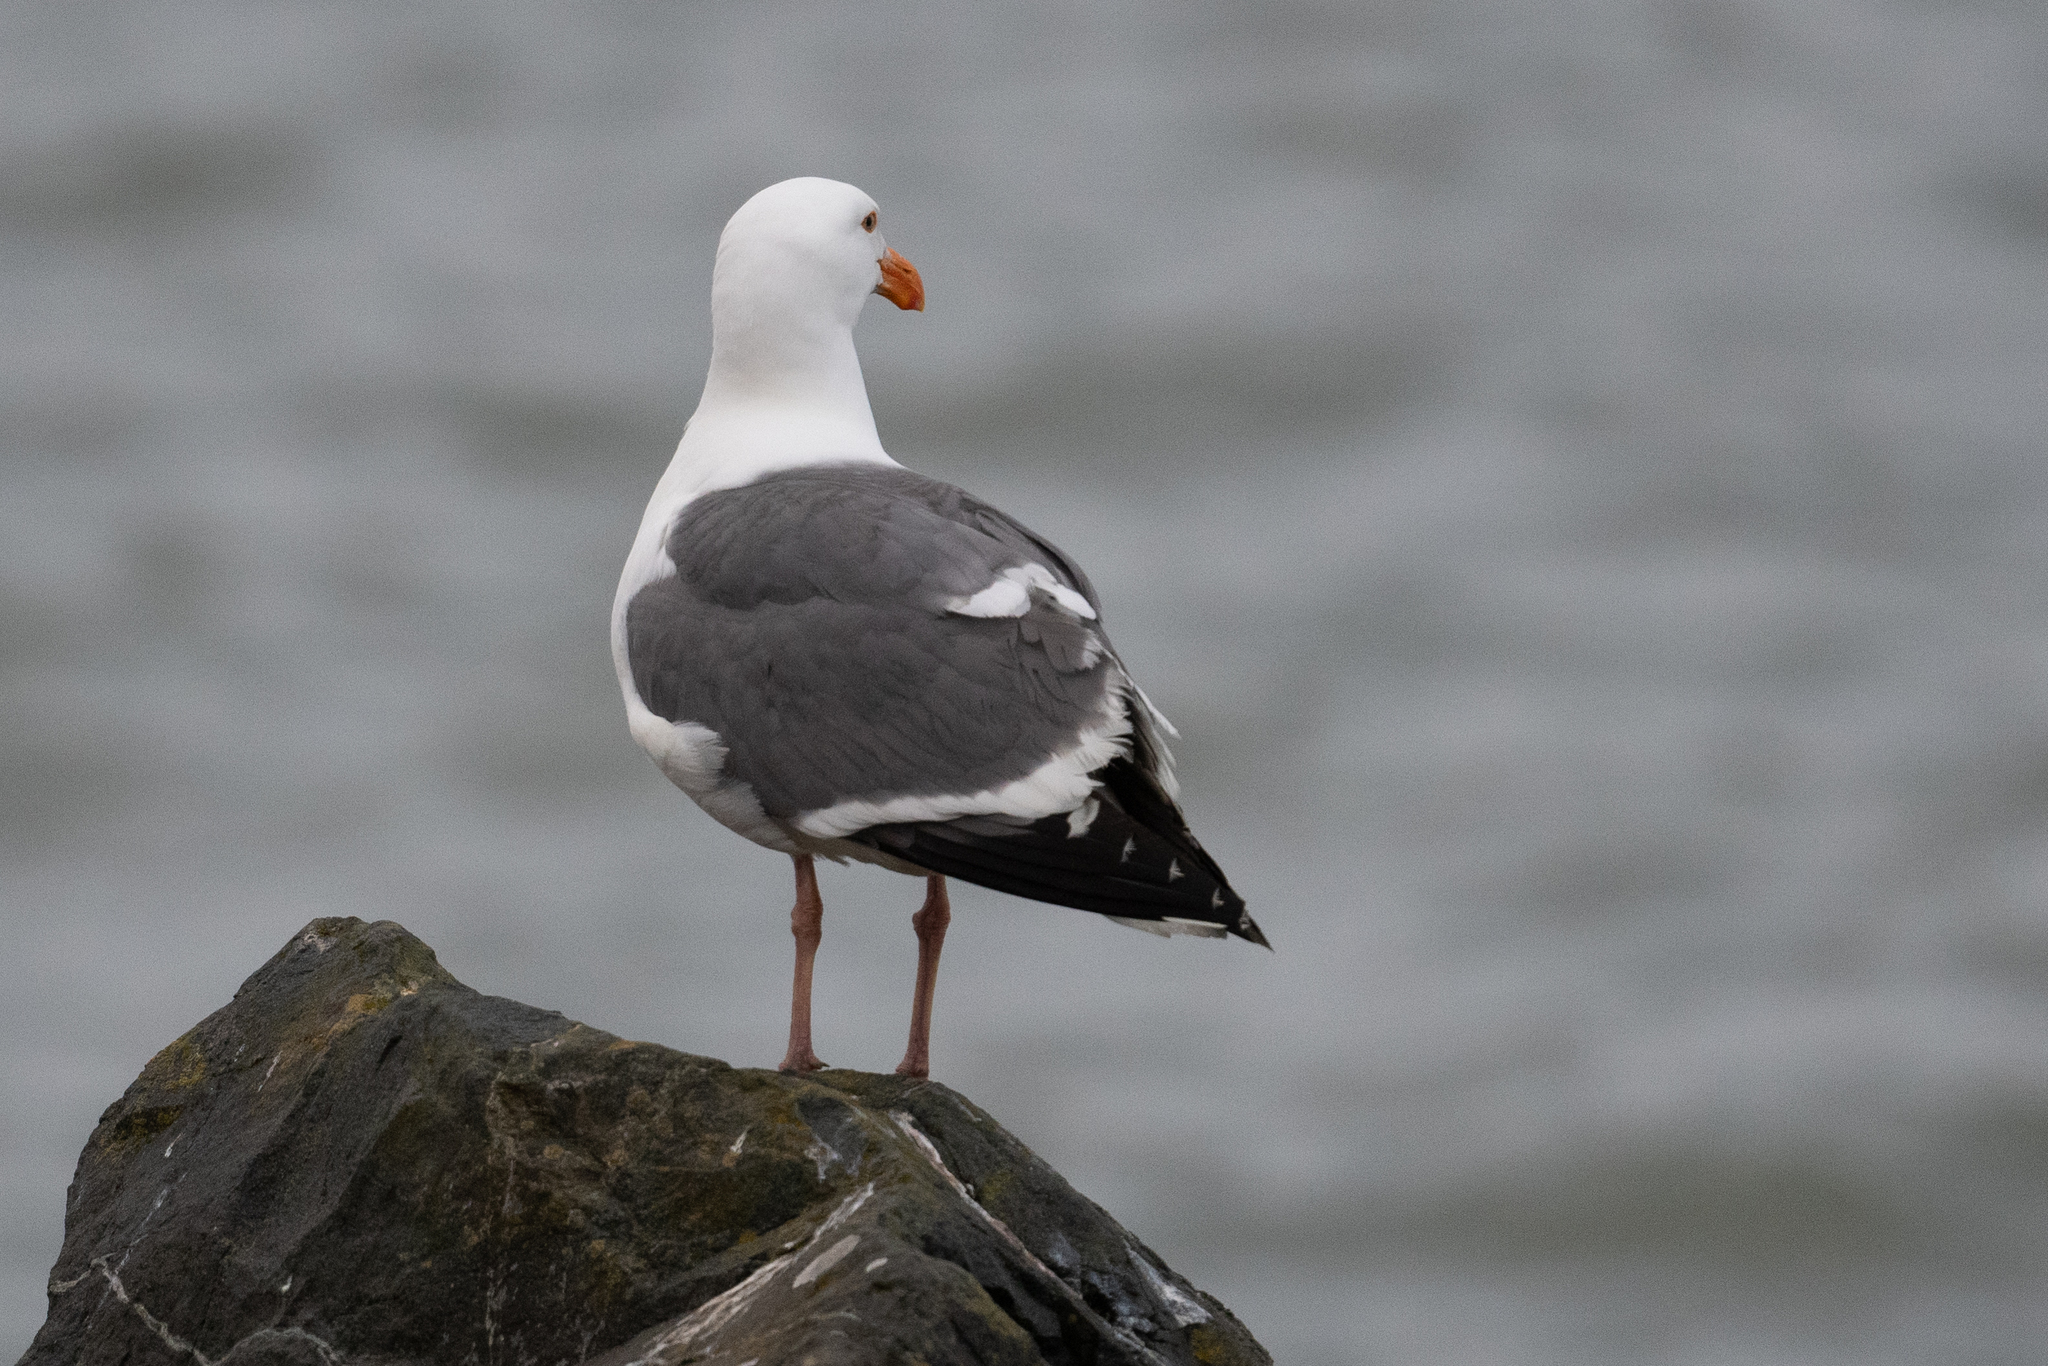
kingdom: Animalia
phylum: Chordata
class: Aves
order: Charadriiformes
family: Laridae
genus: Larus
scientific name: Larus occidentalis
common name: Western gull
